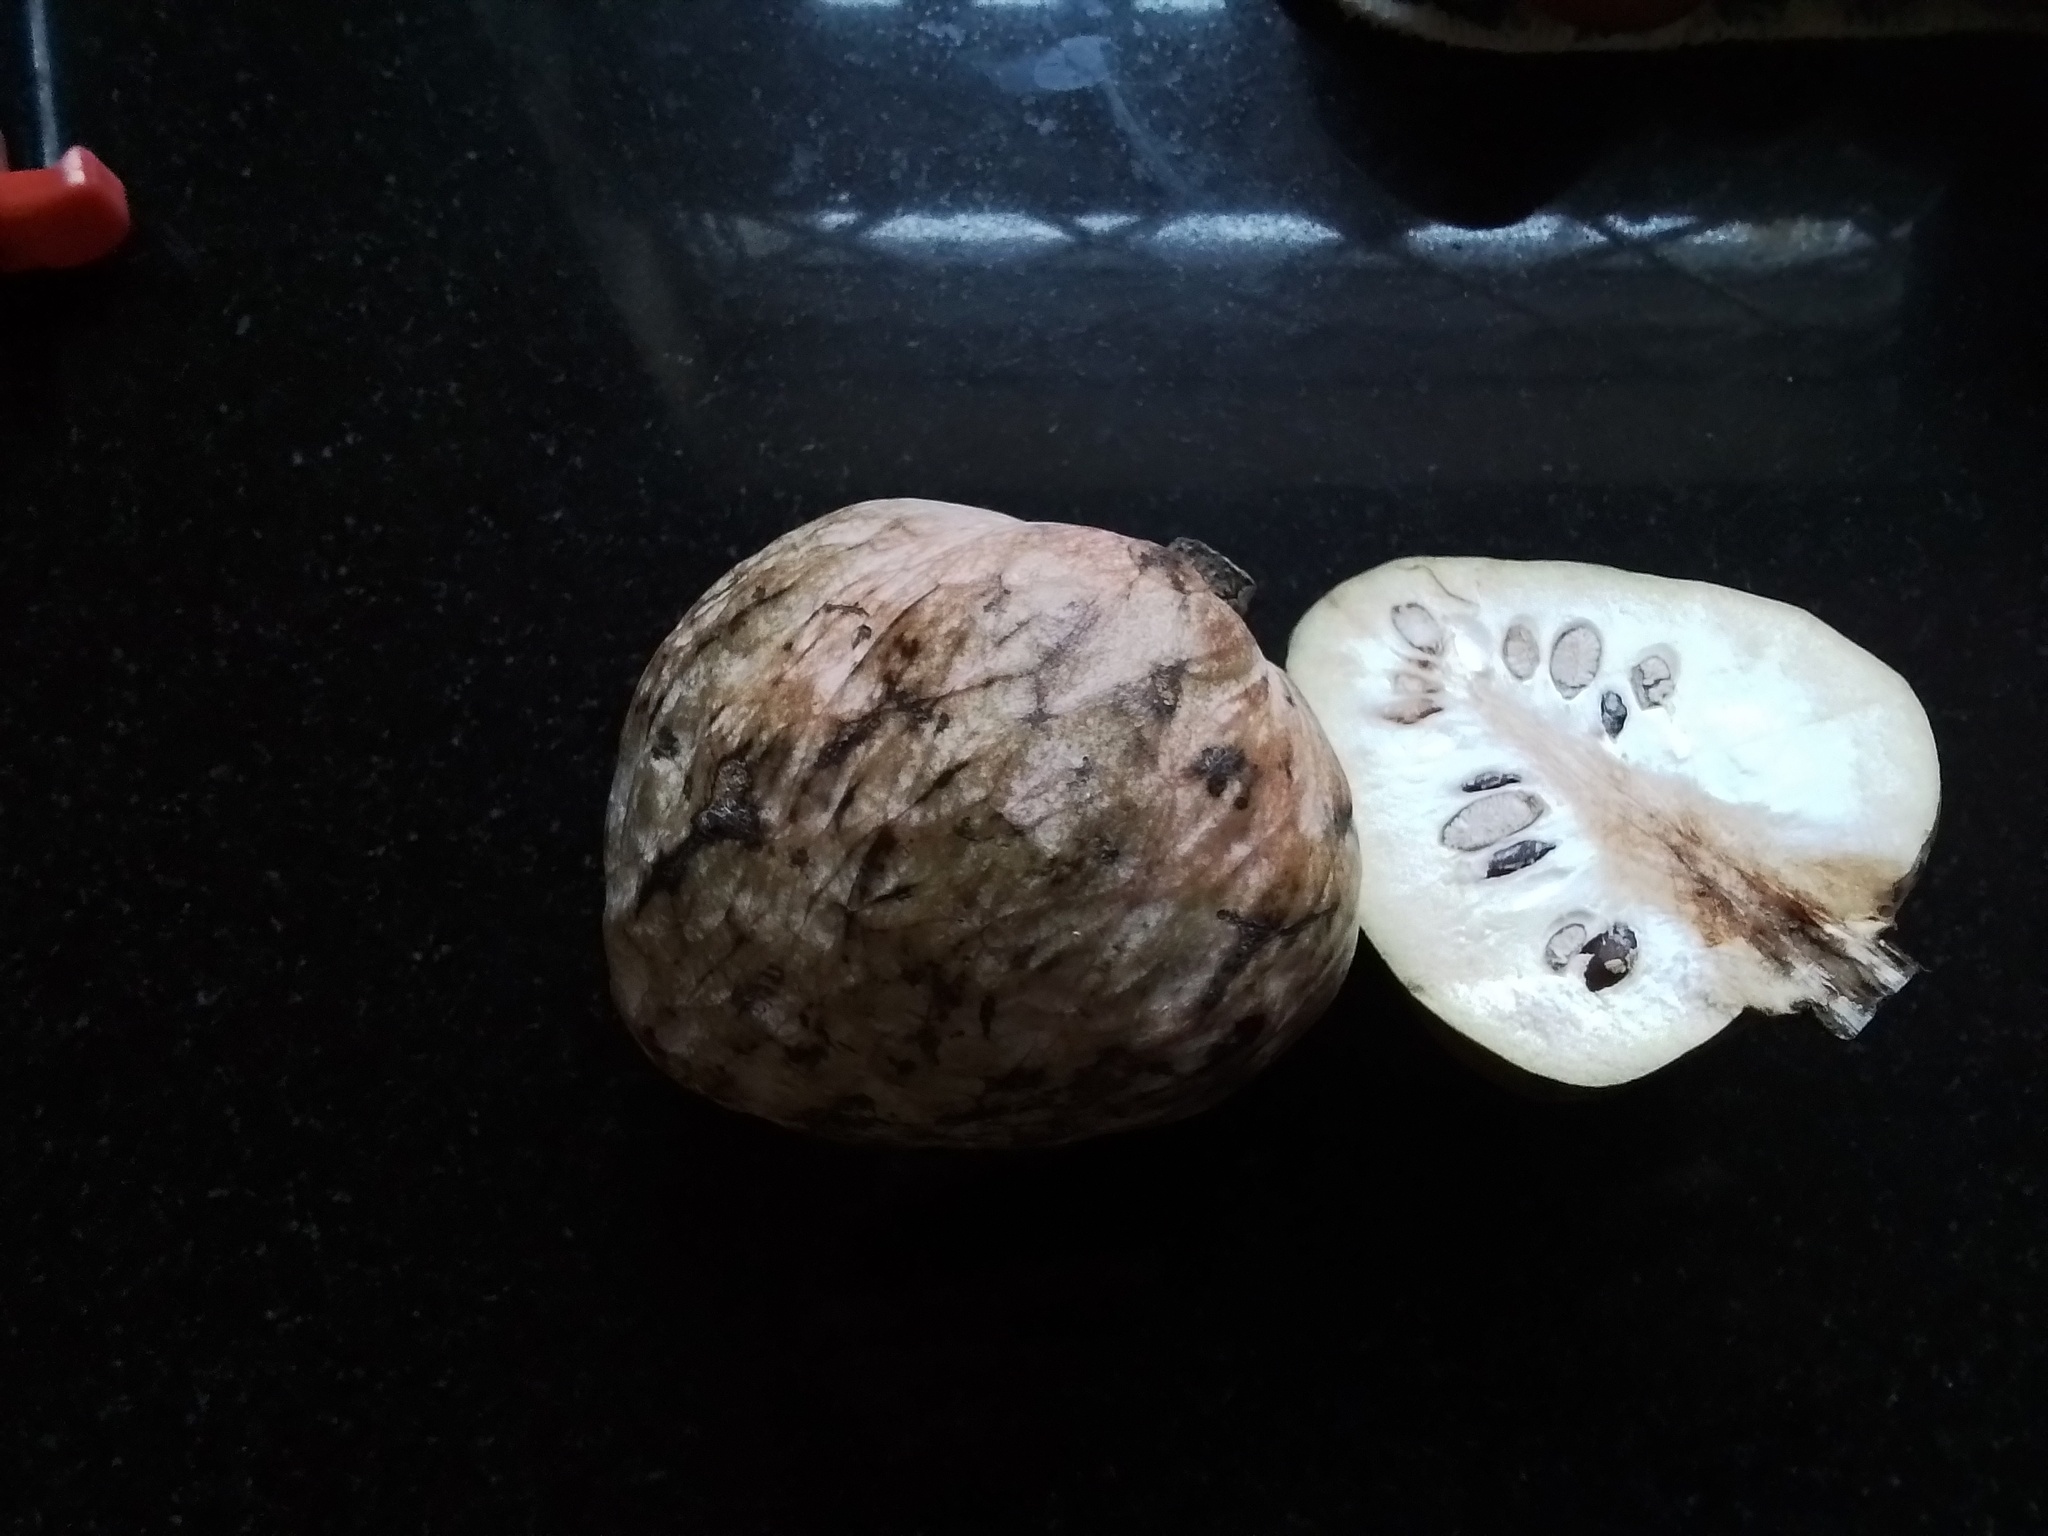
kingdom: Plantae
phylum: Tracheophyta
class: Magnoliopsida
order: Magnoliales
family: Annonaceae
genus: Annona
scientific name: Annona reticulata
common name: Custard apple
